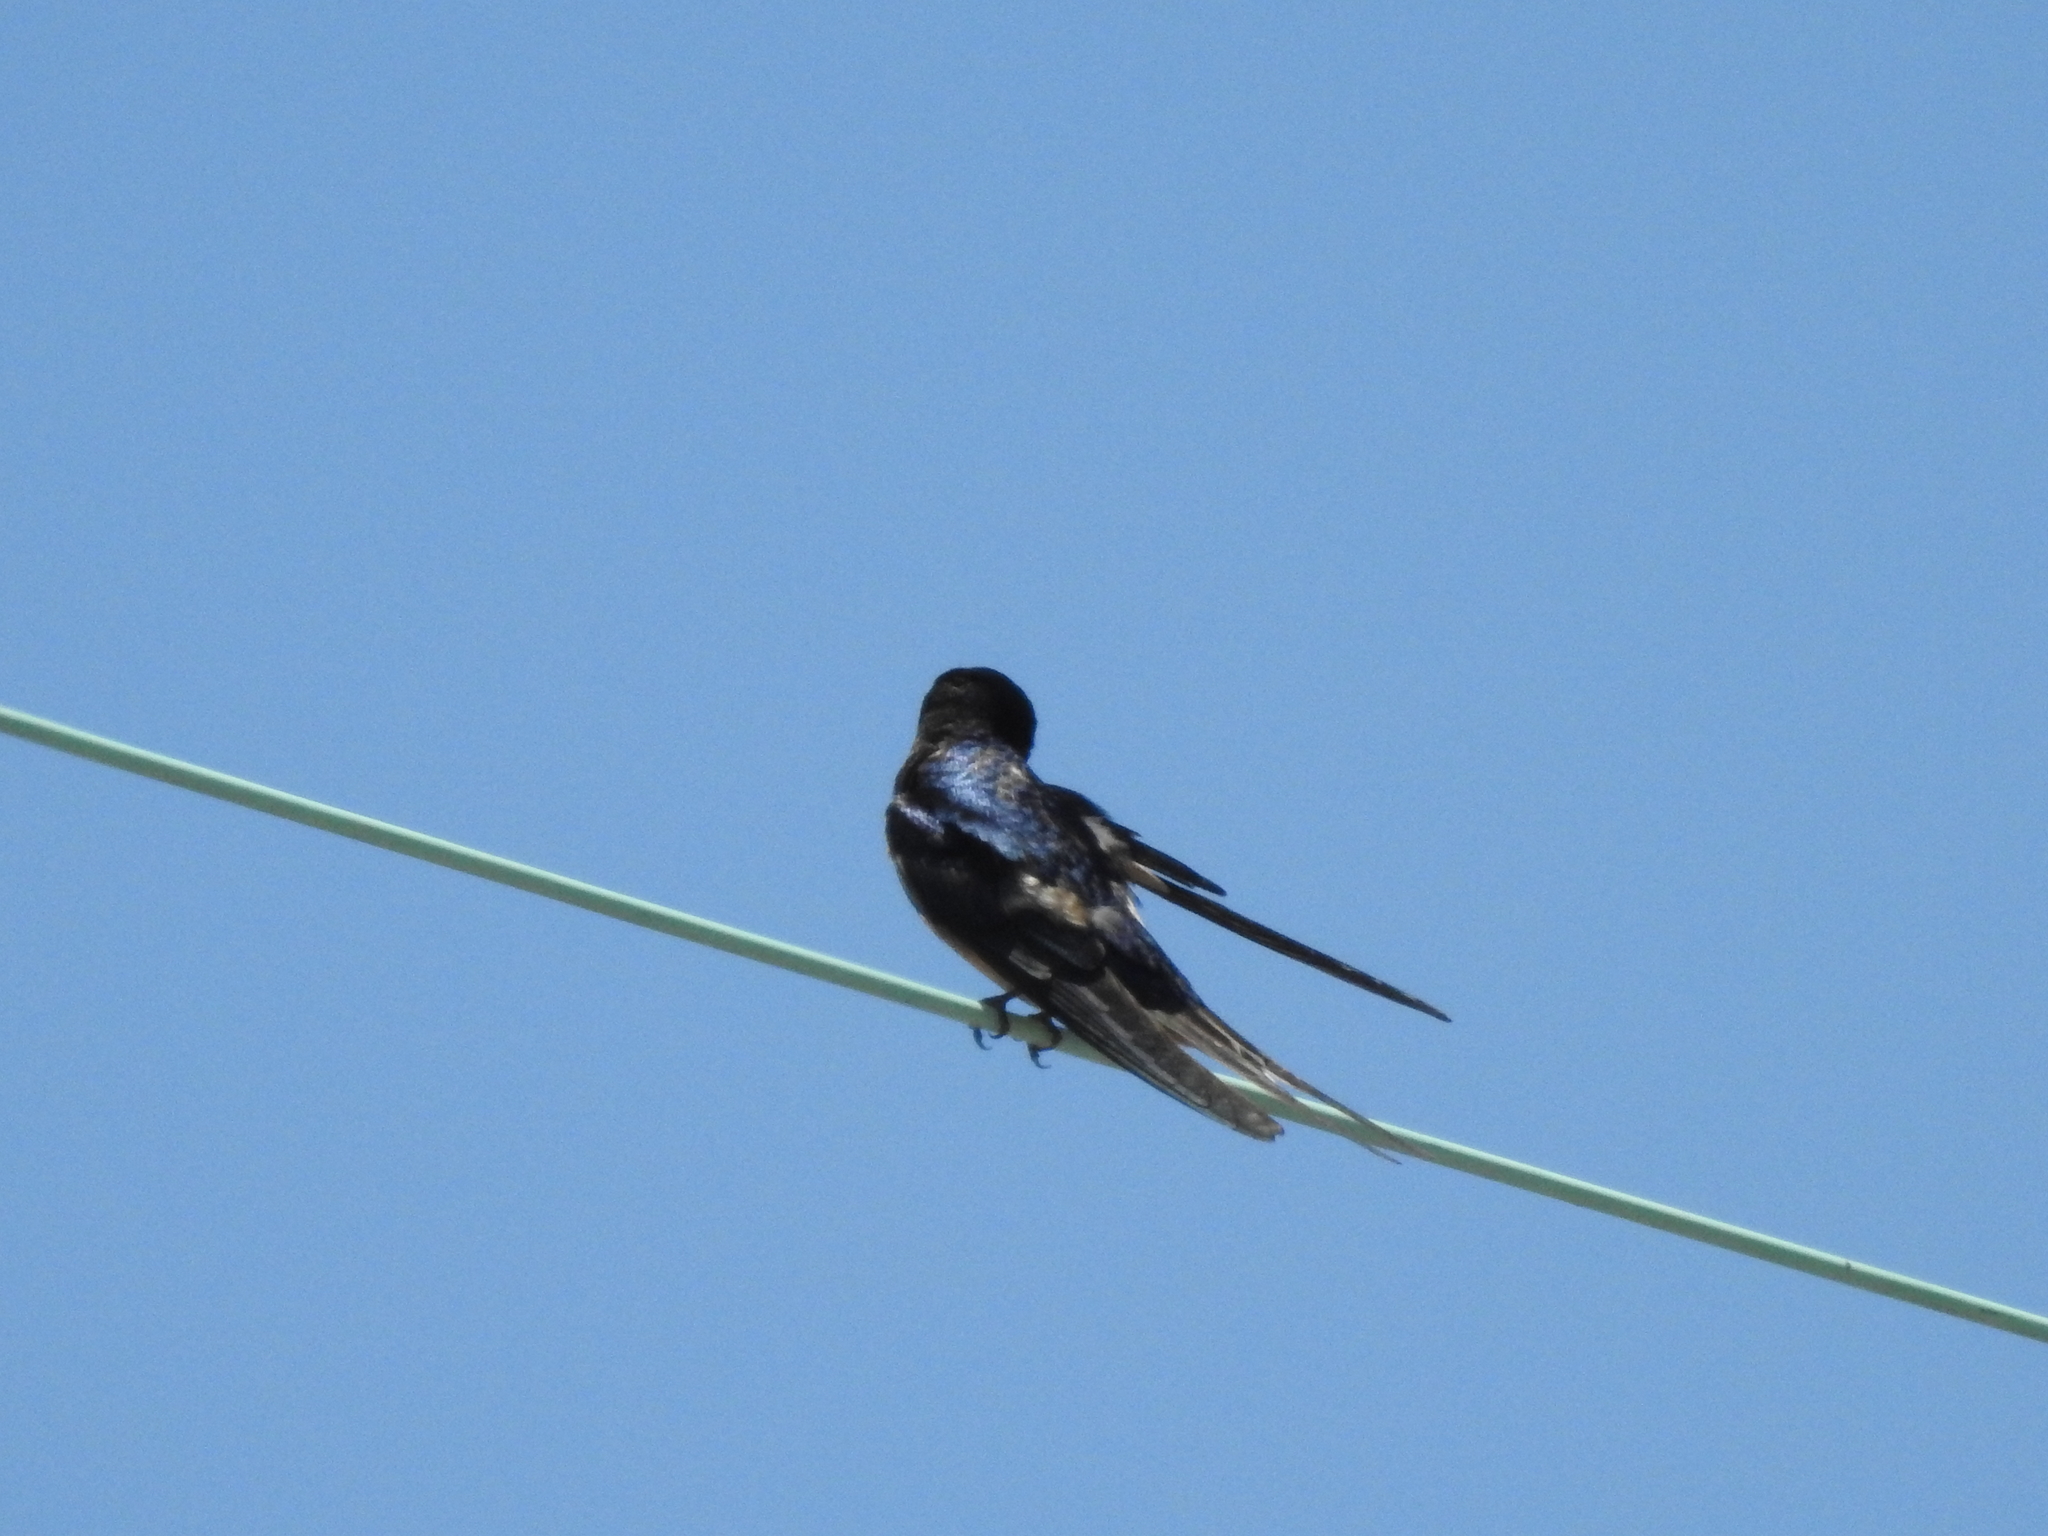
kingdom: Animalia
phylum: Chordata
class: Aves
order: Passeriformes
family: Hirundinidae
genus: Hirundo
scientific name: Hirundo rustica
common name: Barn swallow
